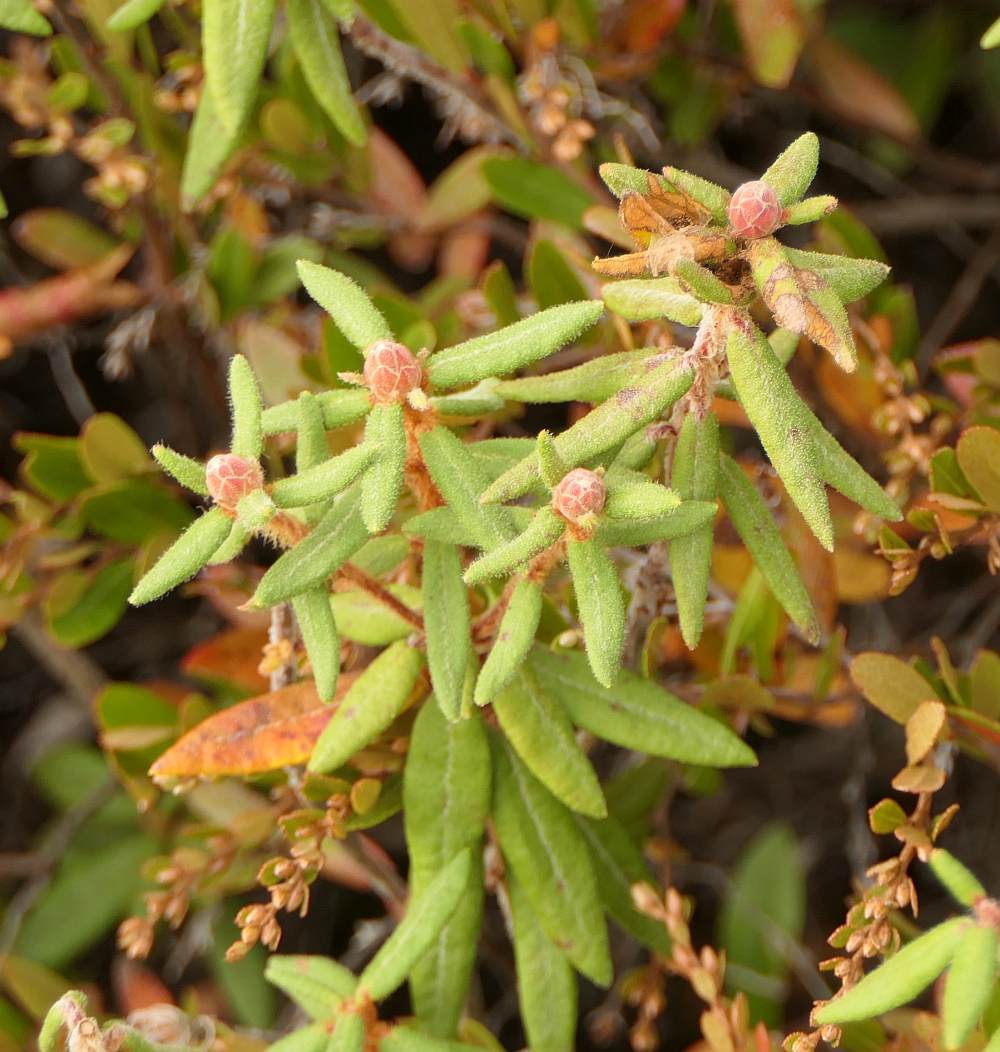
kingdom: Plantae
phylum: Tracheophyta
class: Magnoliopsida
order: Ericales
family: Ericaceae
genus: Rhododendron
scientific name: Rhododendron groenlandicum
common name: Bog labrador tea
